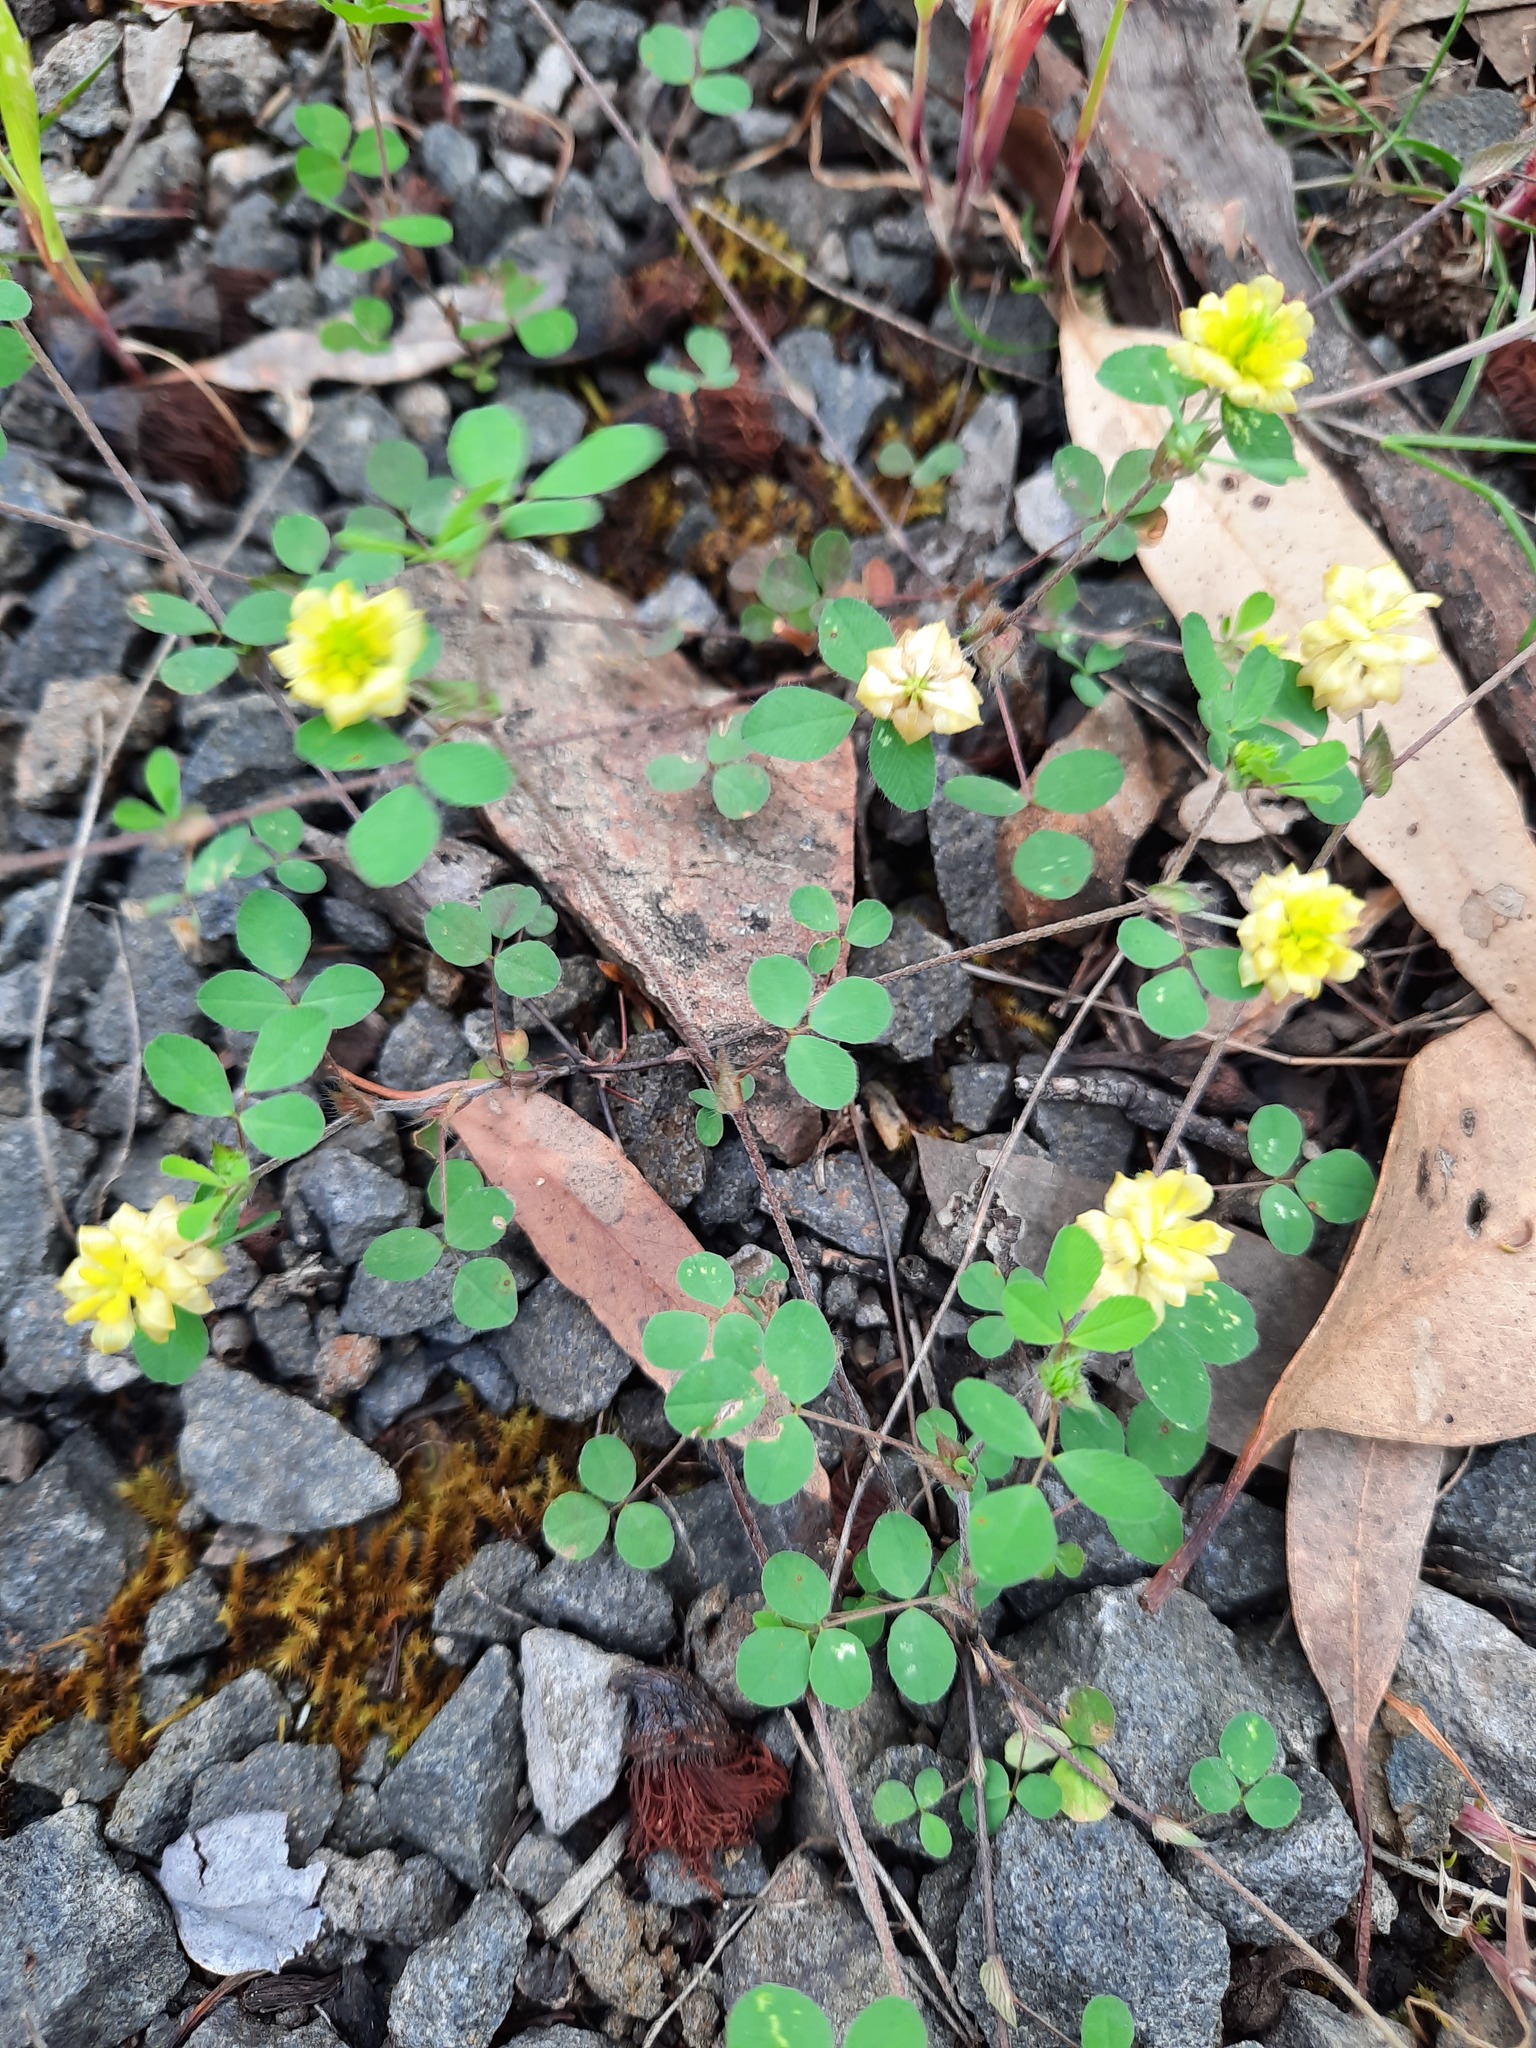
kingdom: Plantae
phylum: Tracheophyta
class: Magnoliopsida
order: Fabales
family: Fabaceae
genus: Trifolium
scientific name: Trifolium campestre
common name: Field clover
